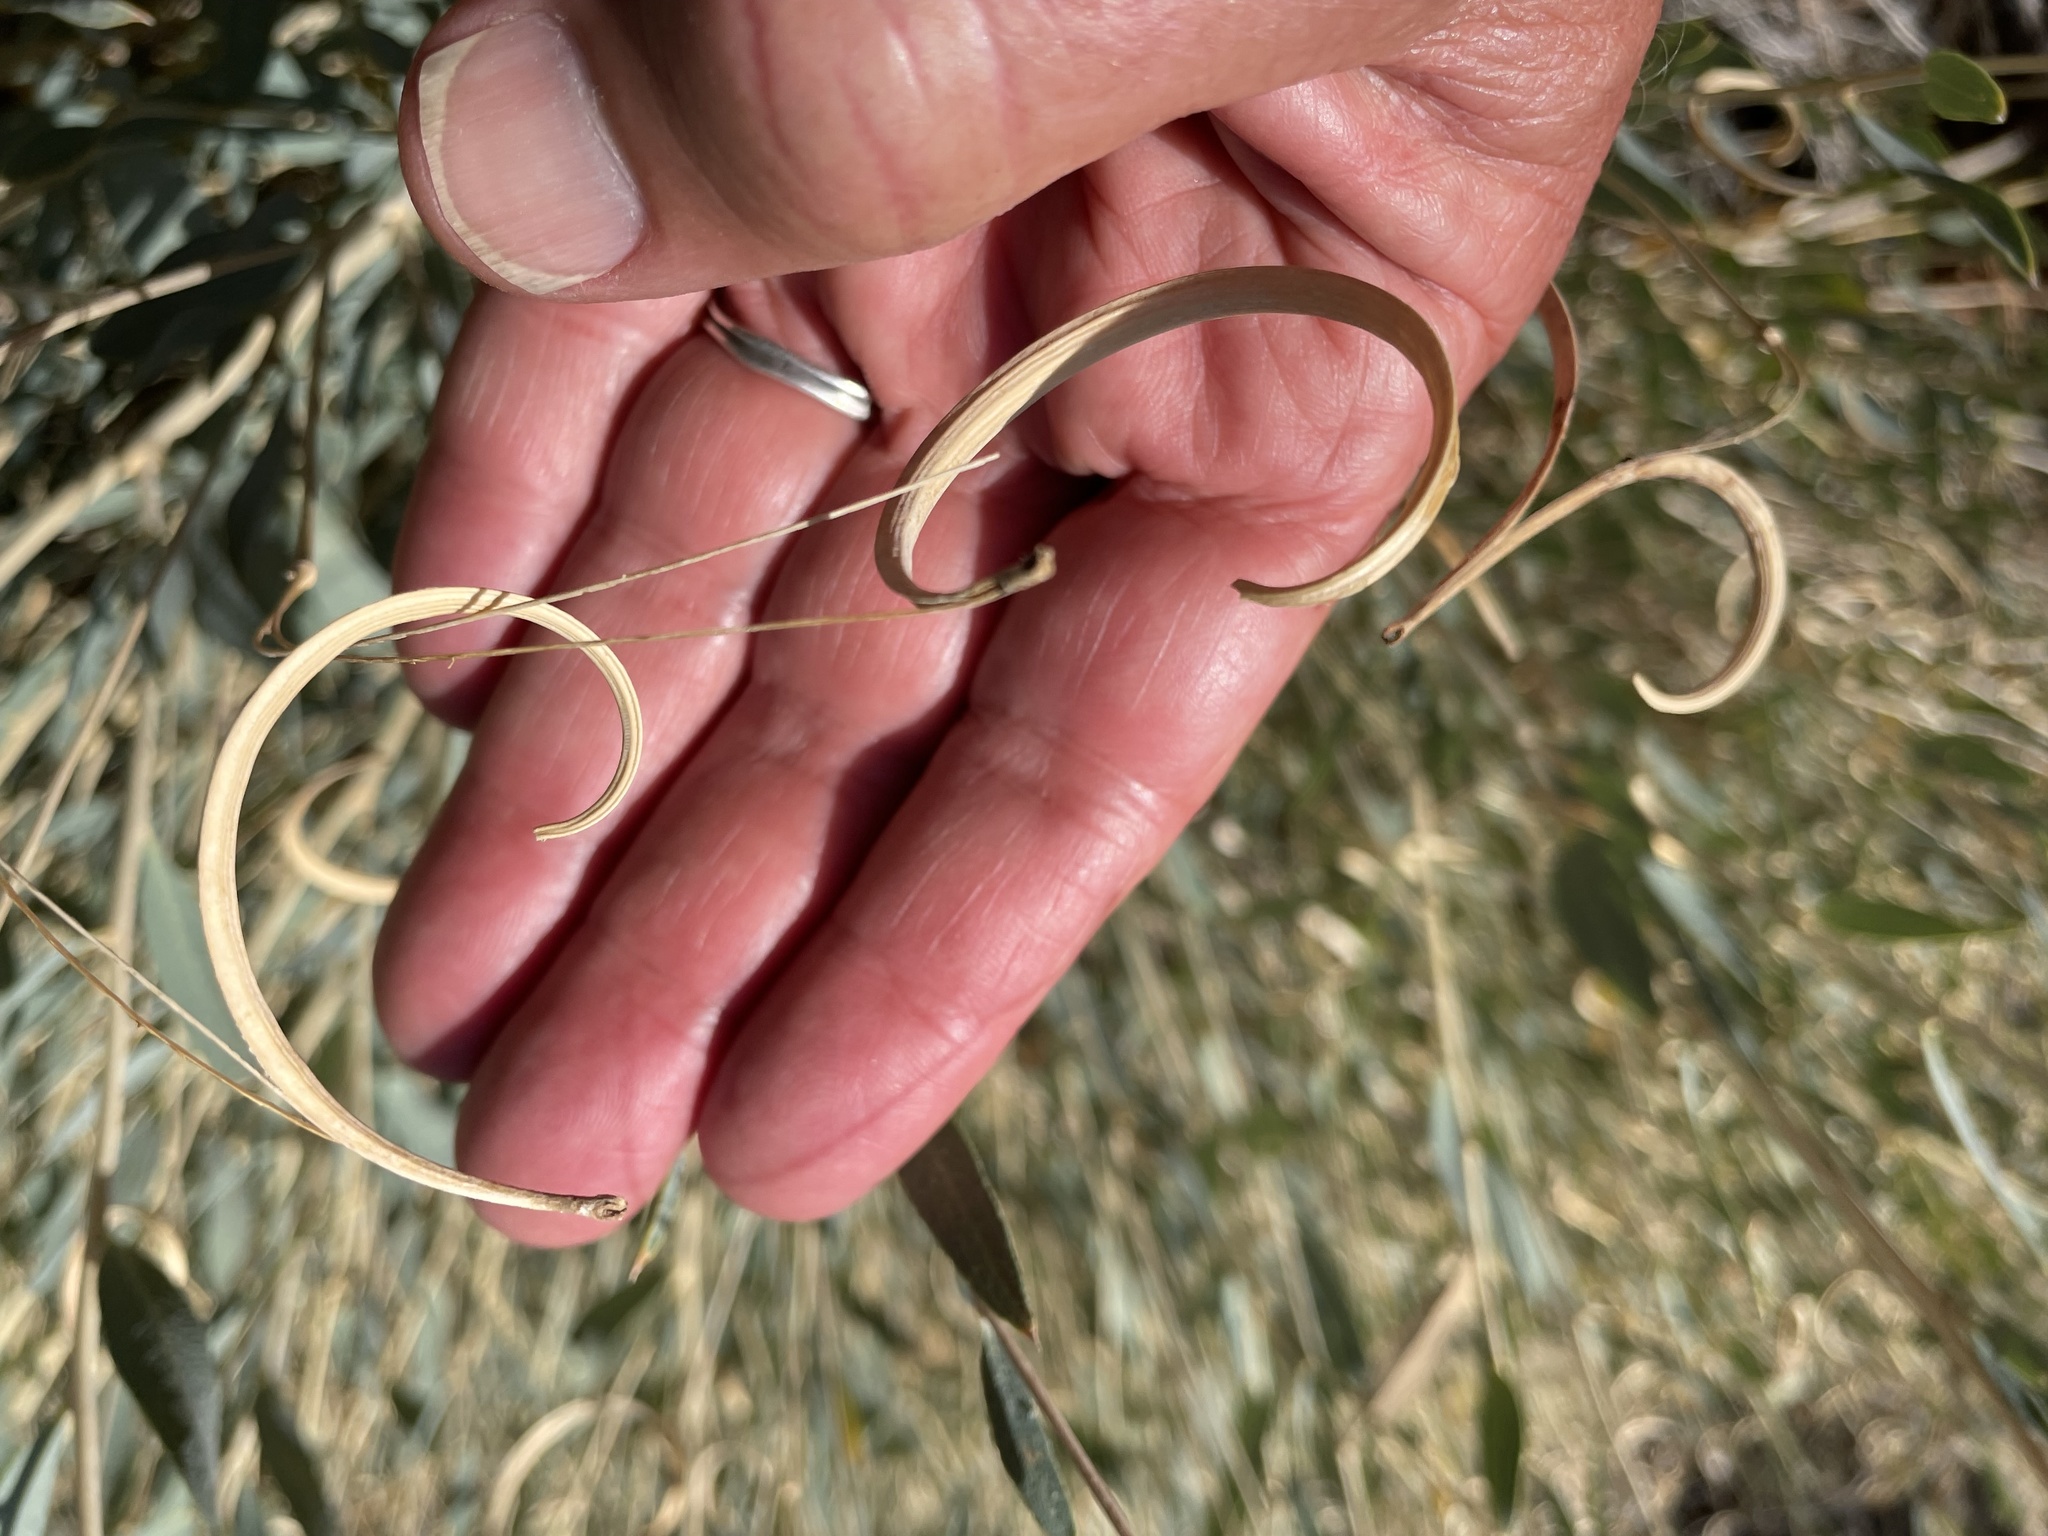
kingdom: Plantae
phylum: Tracheophyta
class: Magnoliopsida
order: Ranunculales
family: Papaveraceae
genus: Dendromecon
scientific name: Dendromecon rigida
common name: Tree poppy
